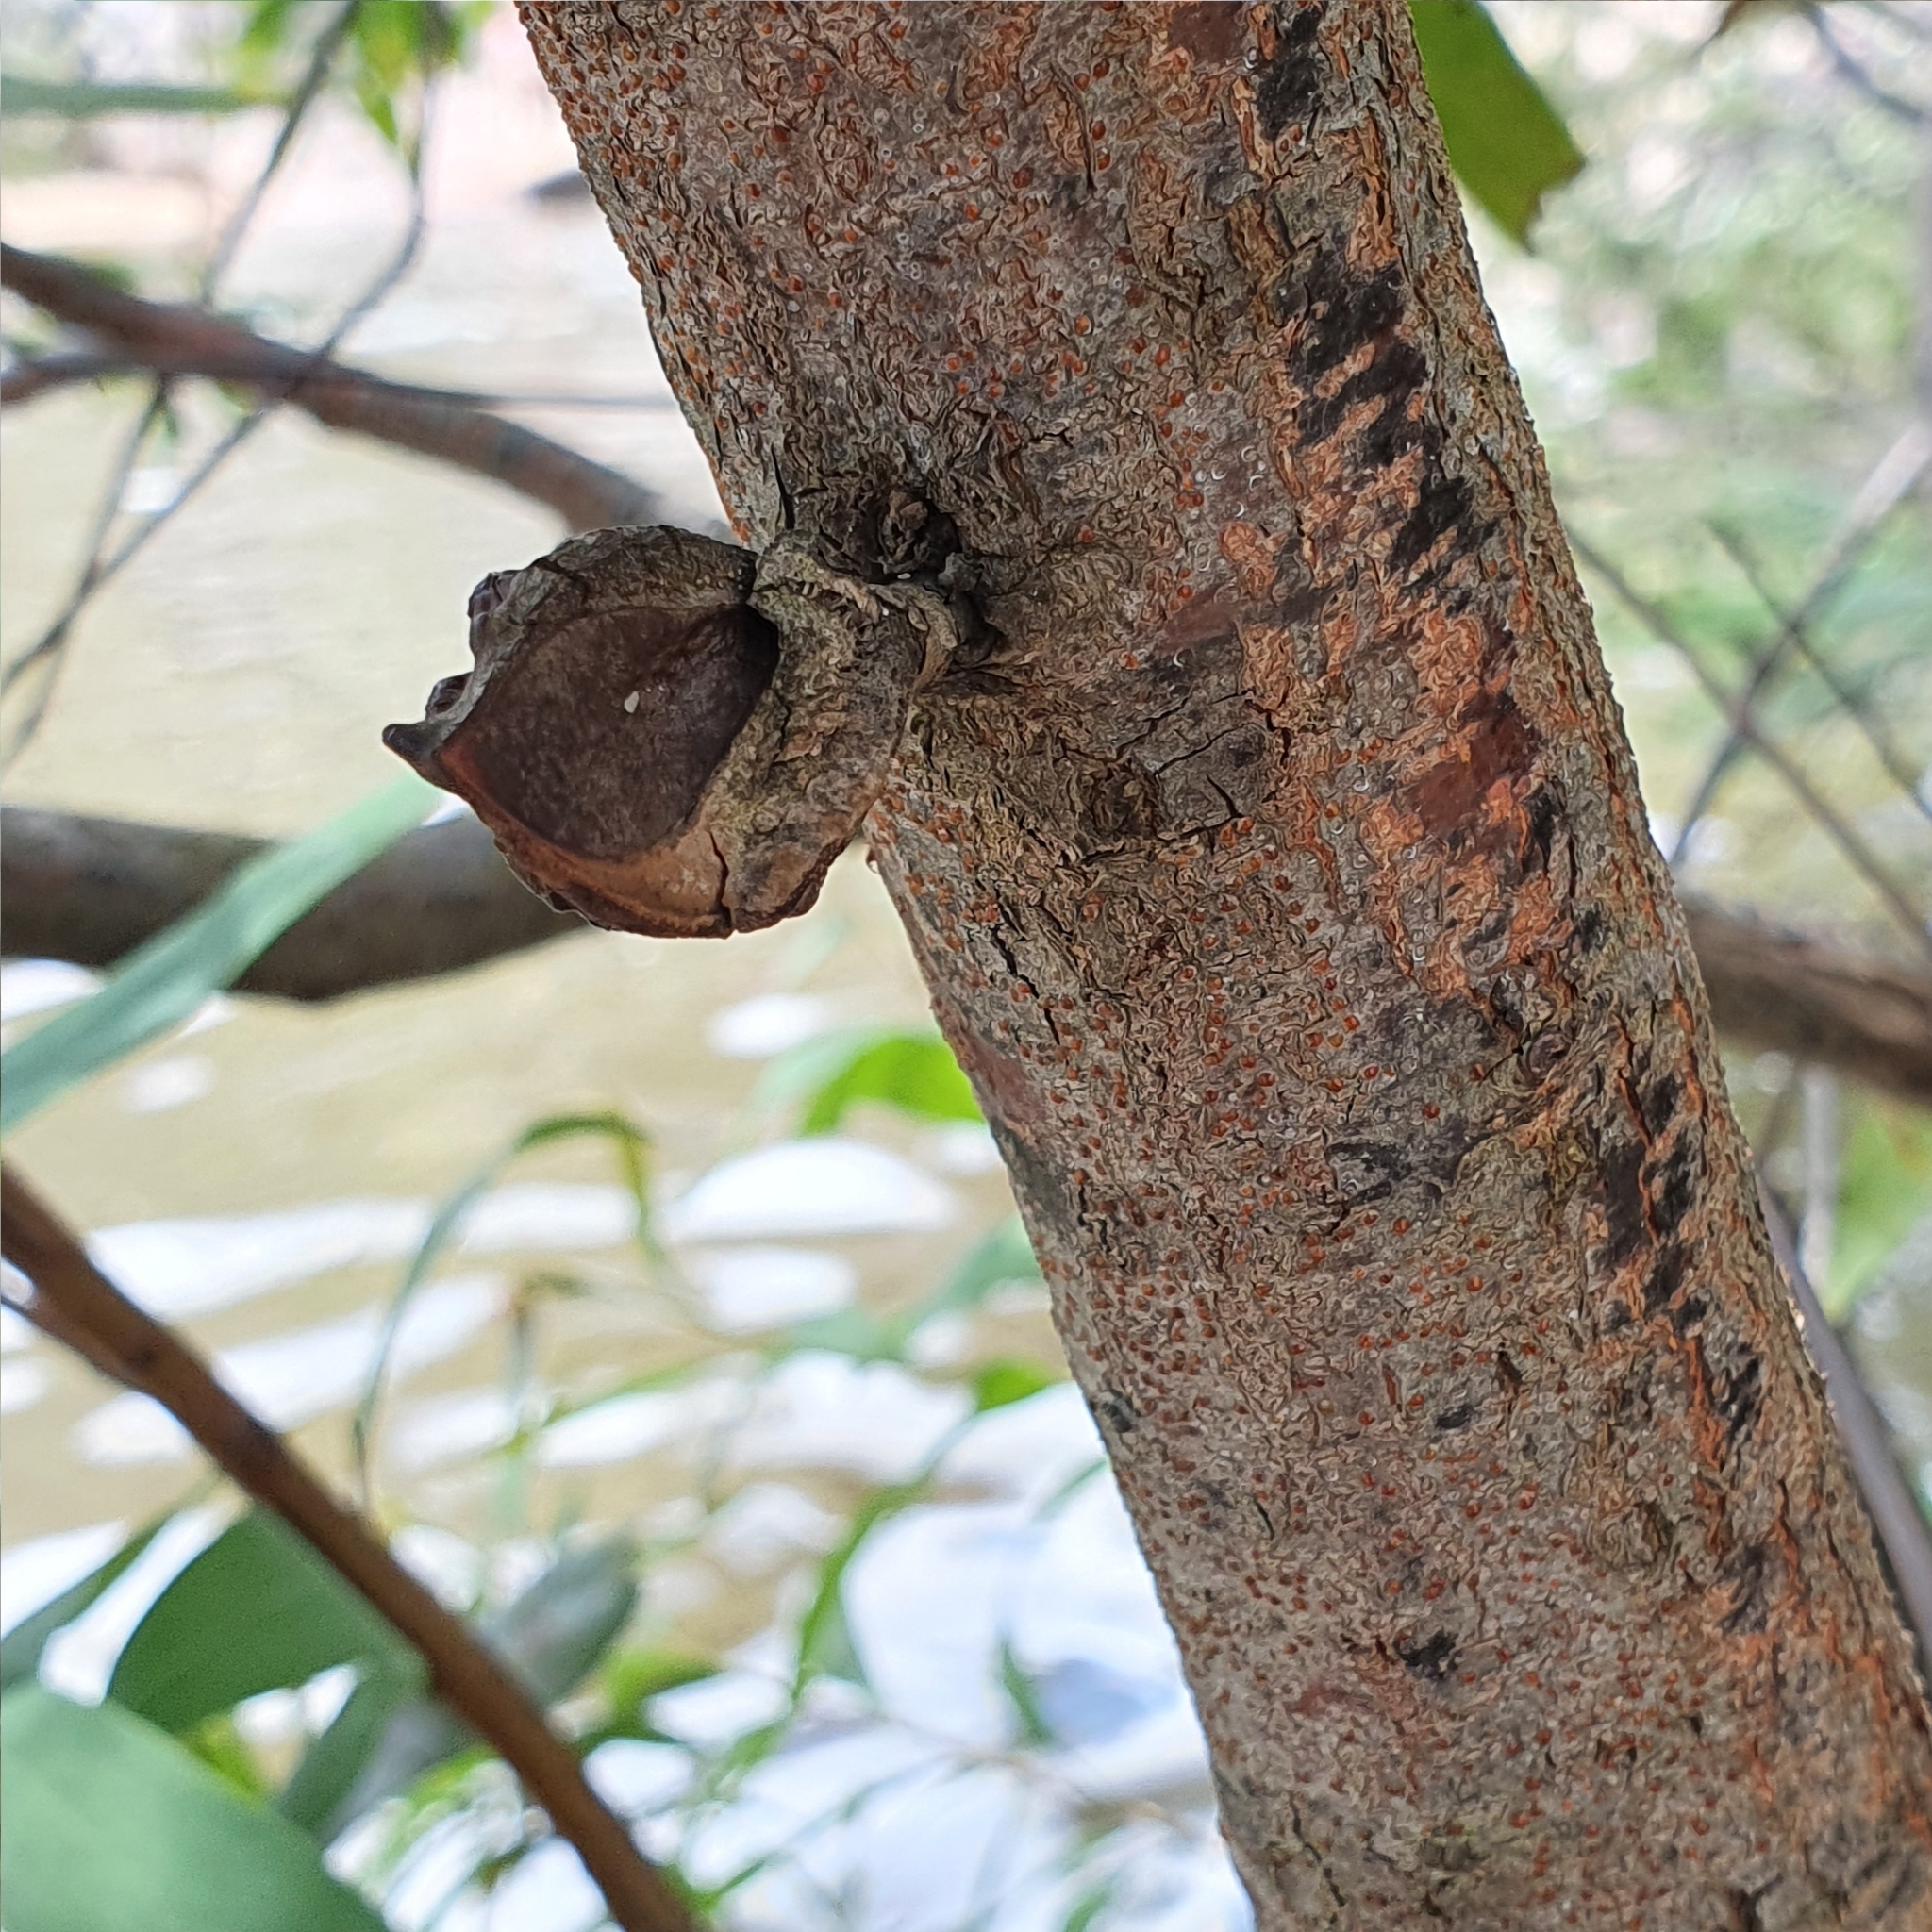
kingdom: Plantae
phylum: Tracheophyta
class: Magnoliopsida
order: Proteales
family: Proteaceae
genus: Hakea
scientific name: Hakea salicifolia
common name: Willow hakea
